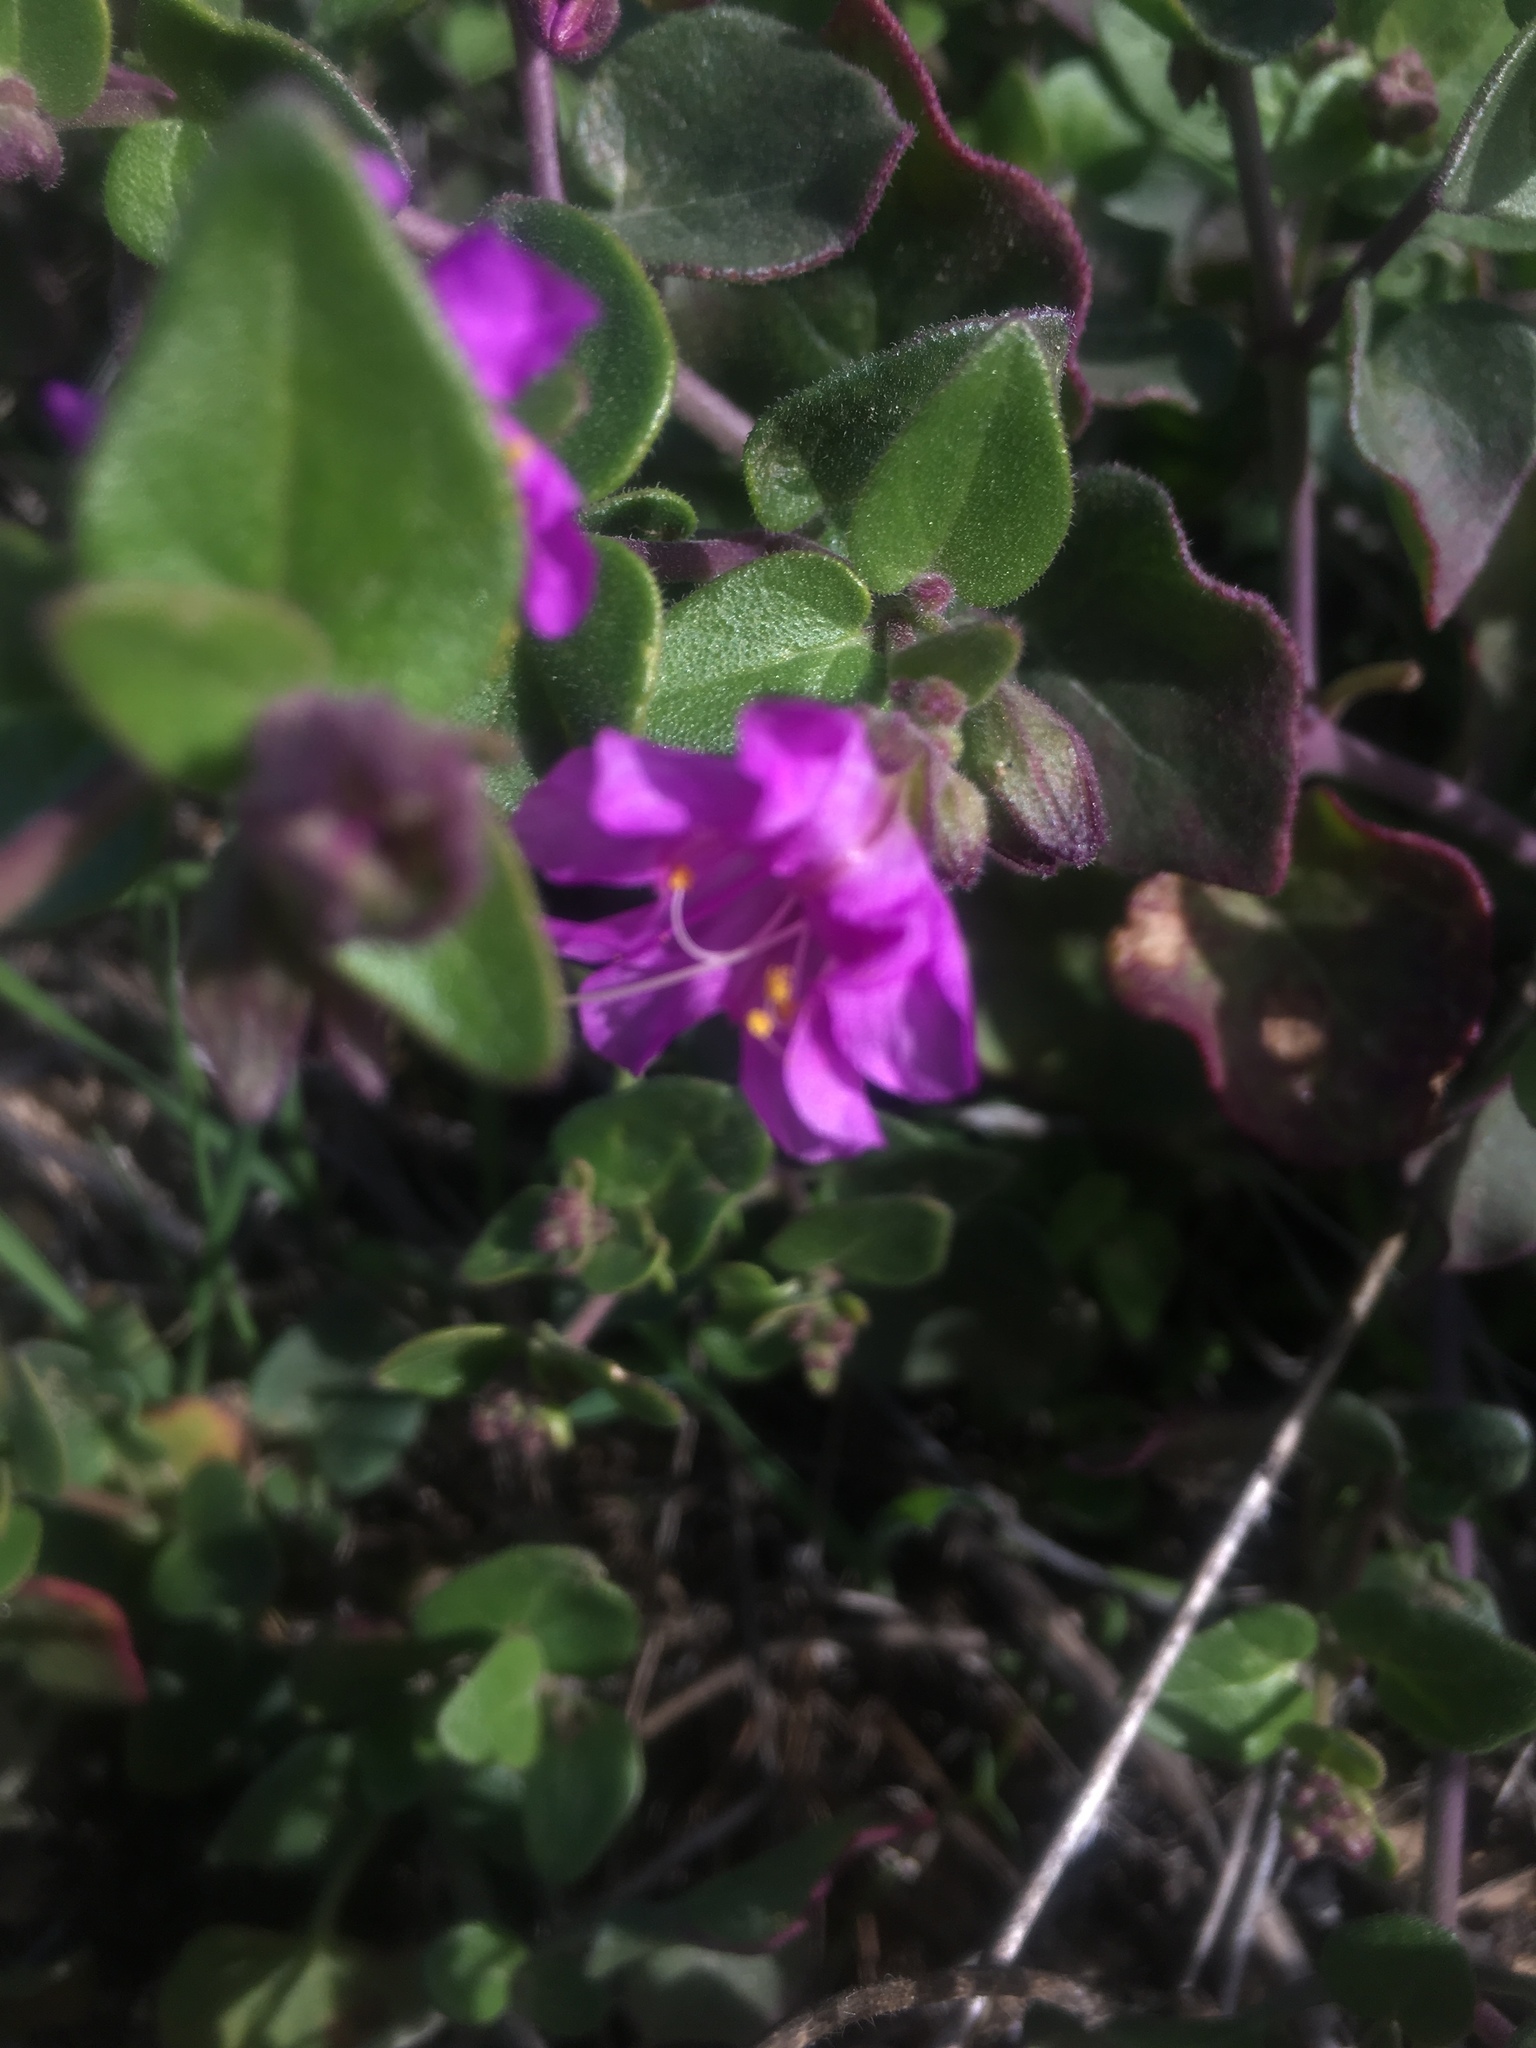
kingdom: Plantae
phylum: Tracheophyta
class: Magnoliopsida
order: Caryophyllales
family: Nyctaginaceae
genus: Mirabilis
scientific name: Mirabilis laevis
